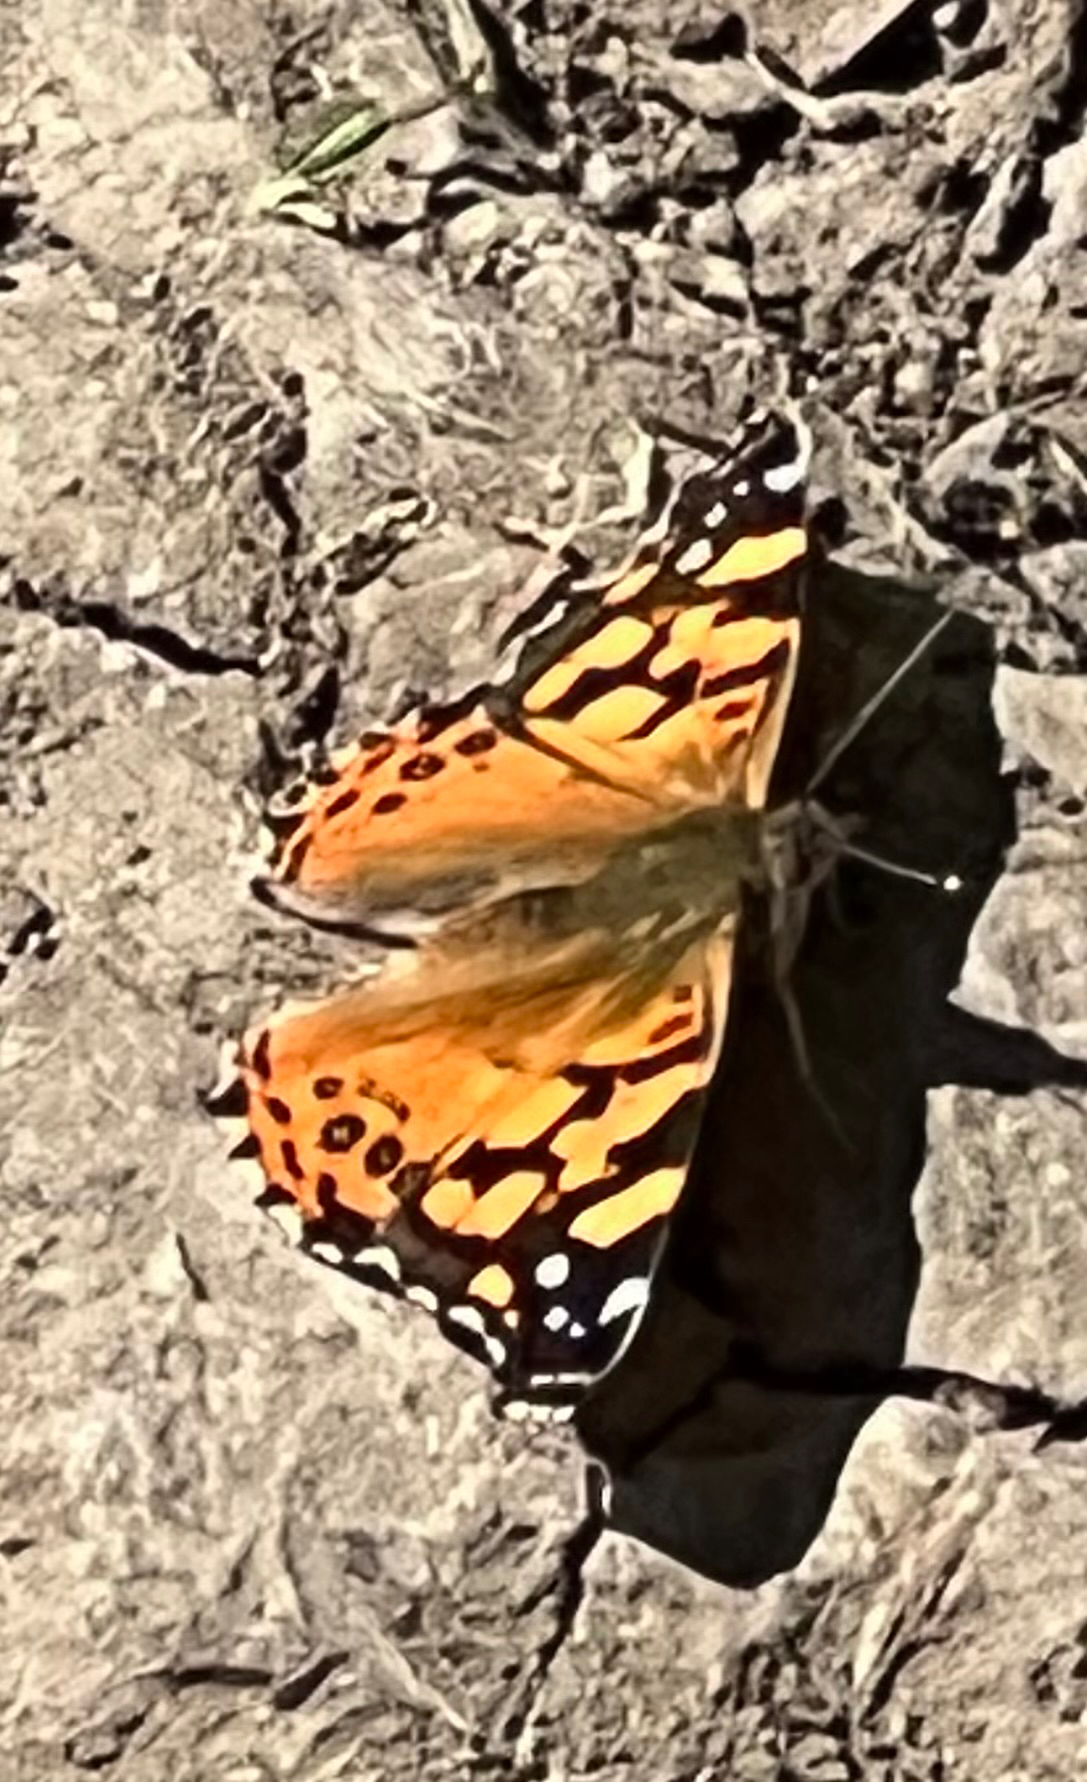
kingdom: Animalia
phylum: Arthropoda
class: Insecta
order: Lepidoptera
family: Nymphalidae
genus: Vanessa
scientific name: Vanessa annabella
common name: West coast lady
